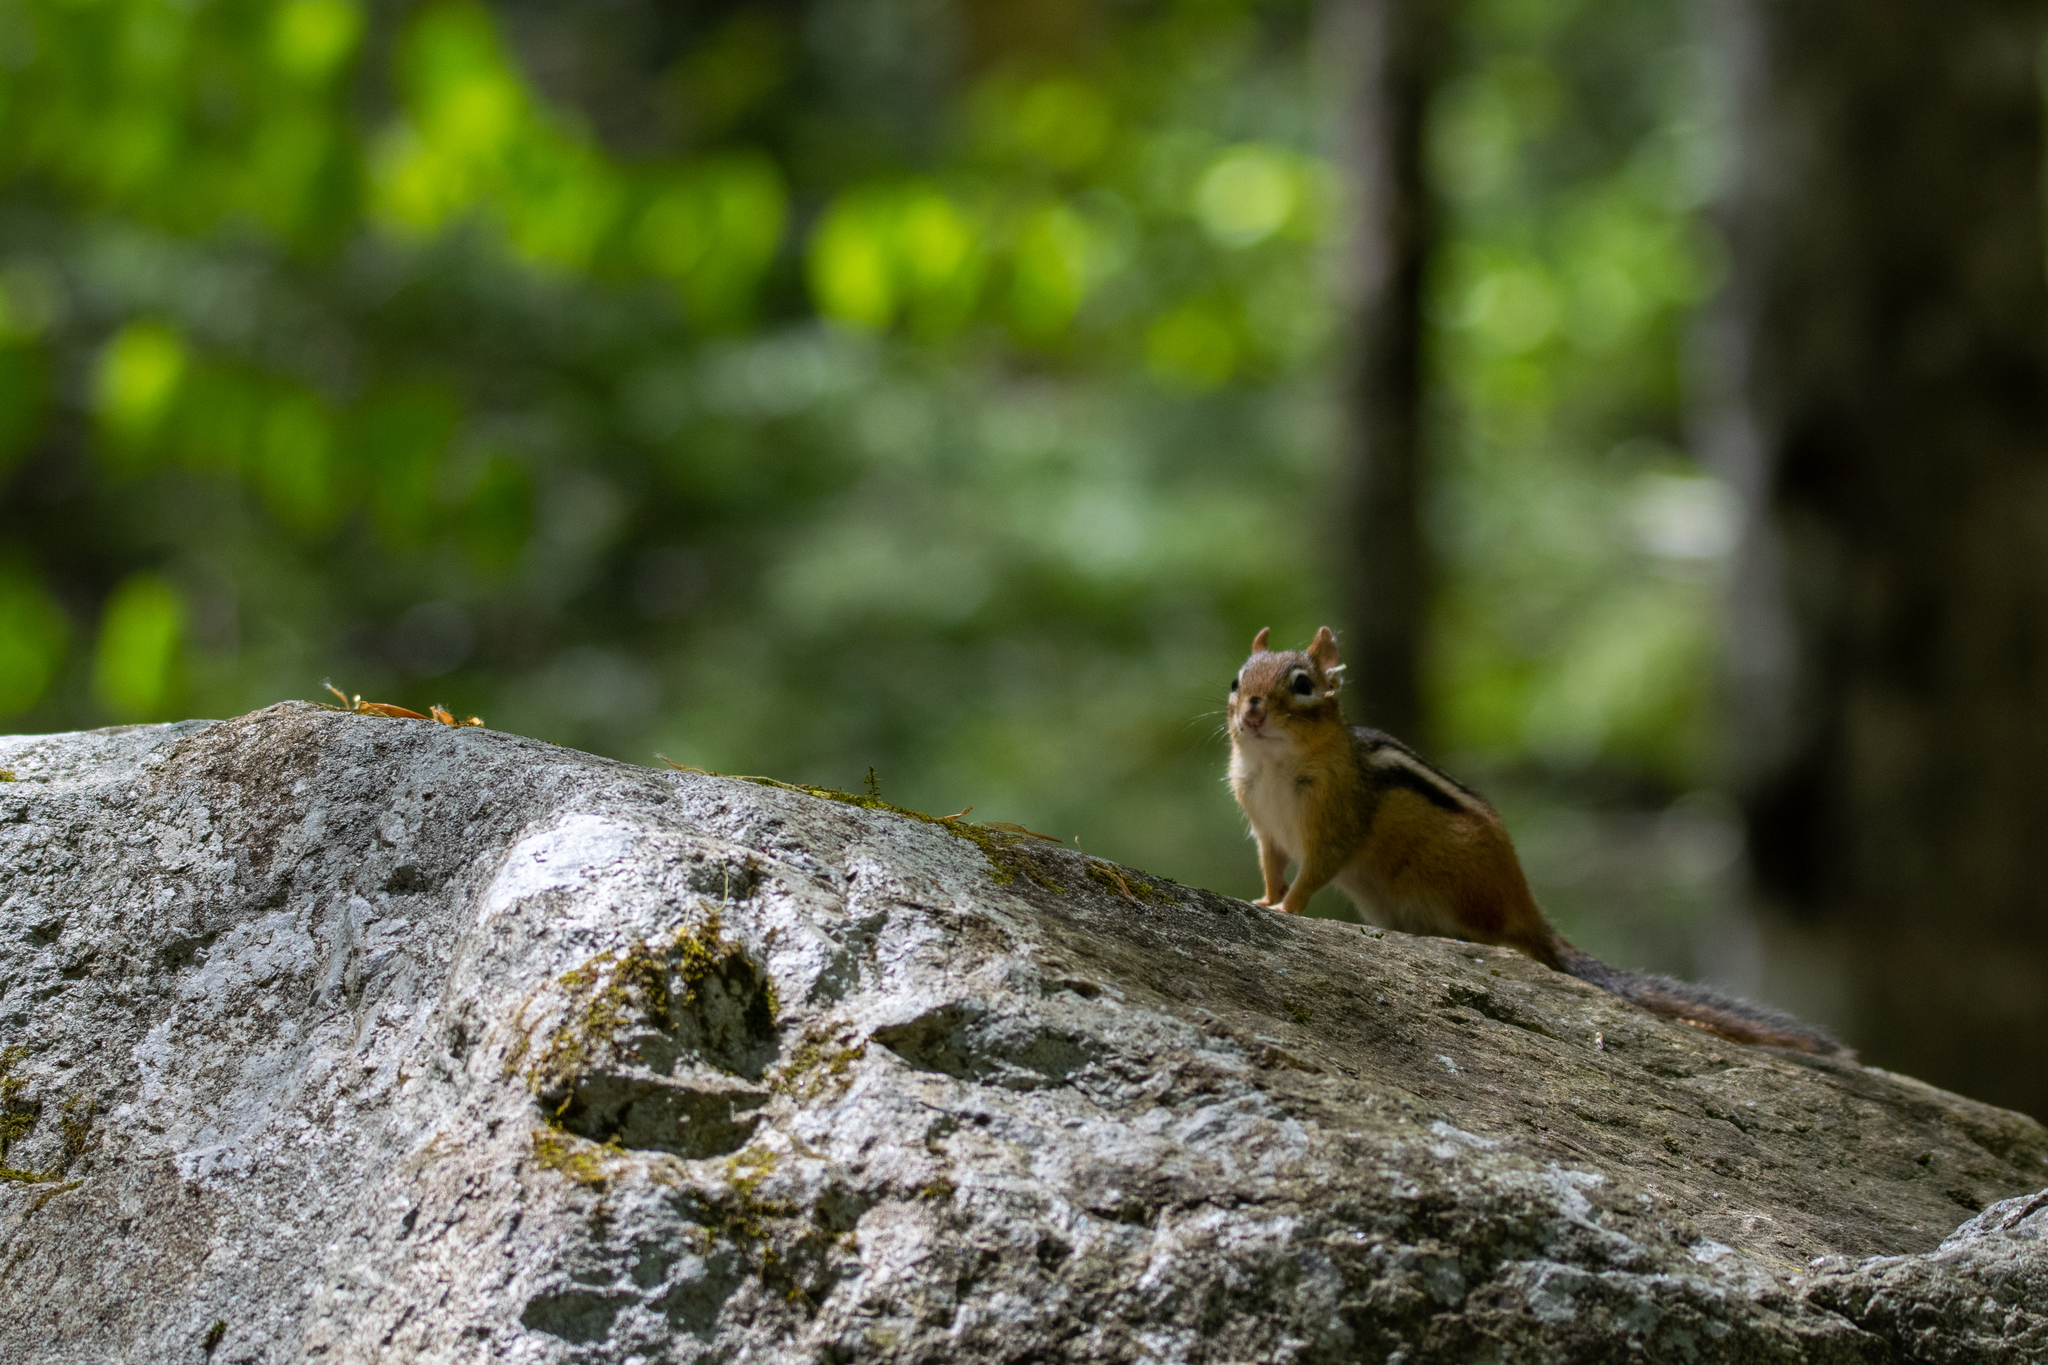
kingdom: Animalia
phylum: Chordata
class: Mammalia
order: Rodentia
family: Sciuridae
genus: Tamias
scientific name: Tamias striatus
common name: Eastern chipmunk
